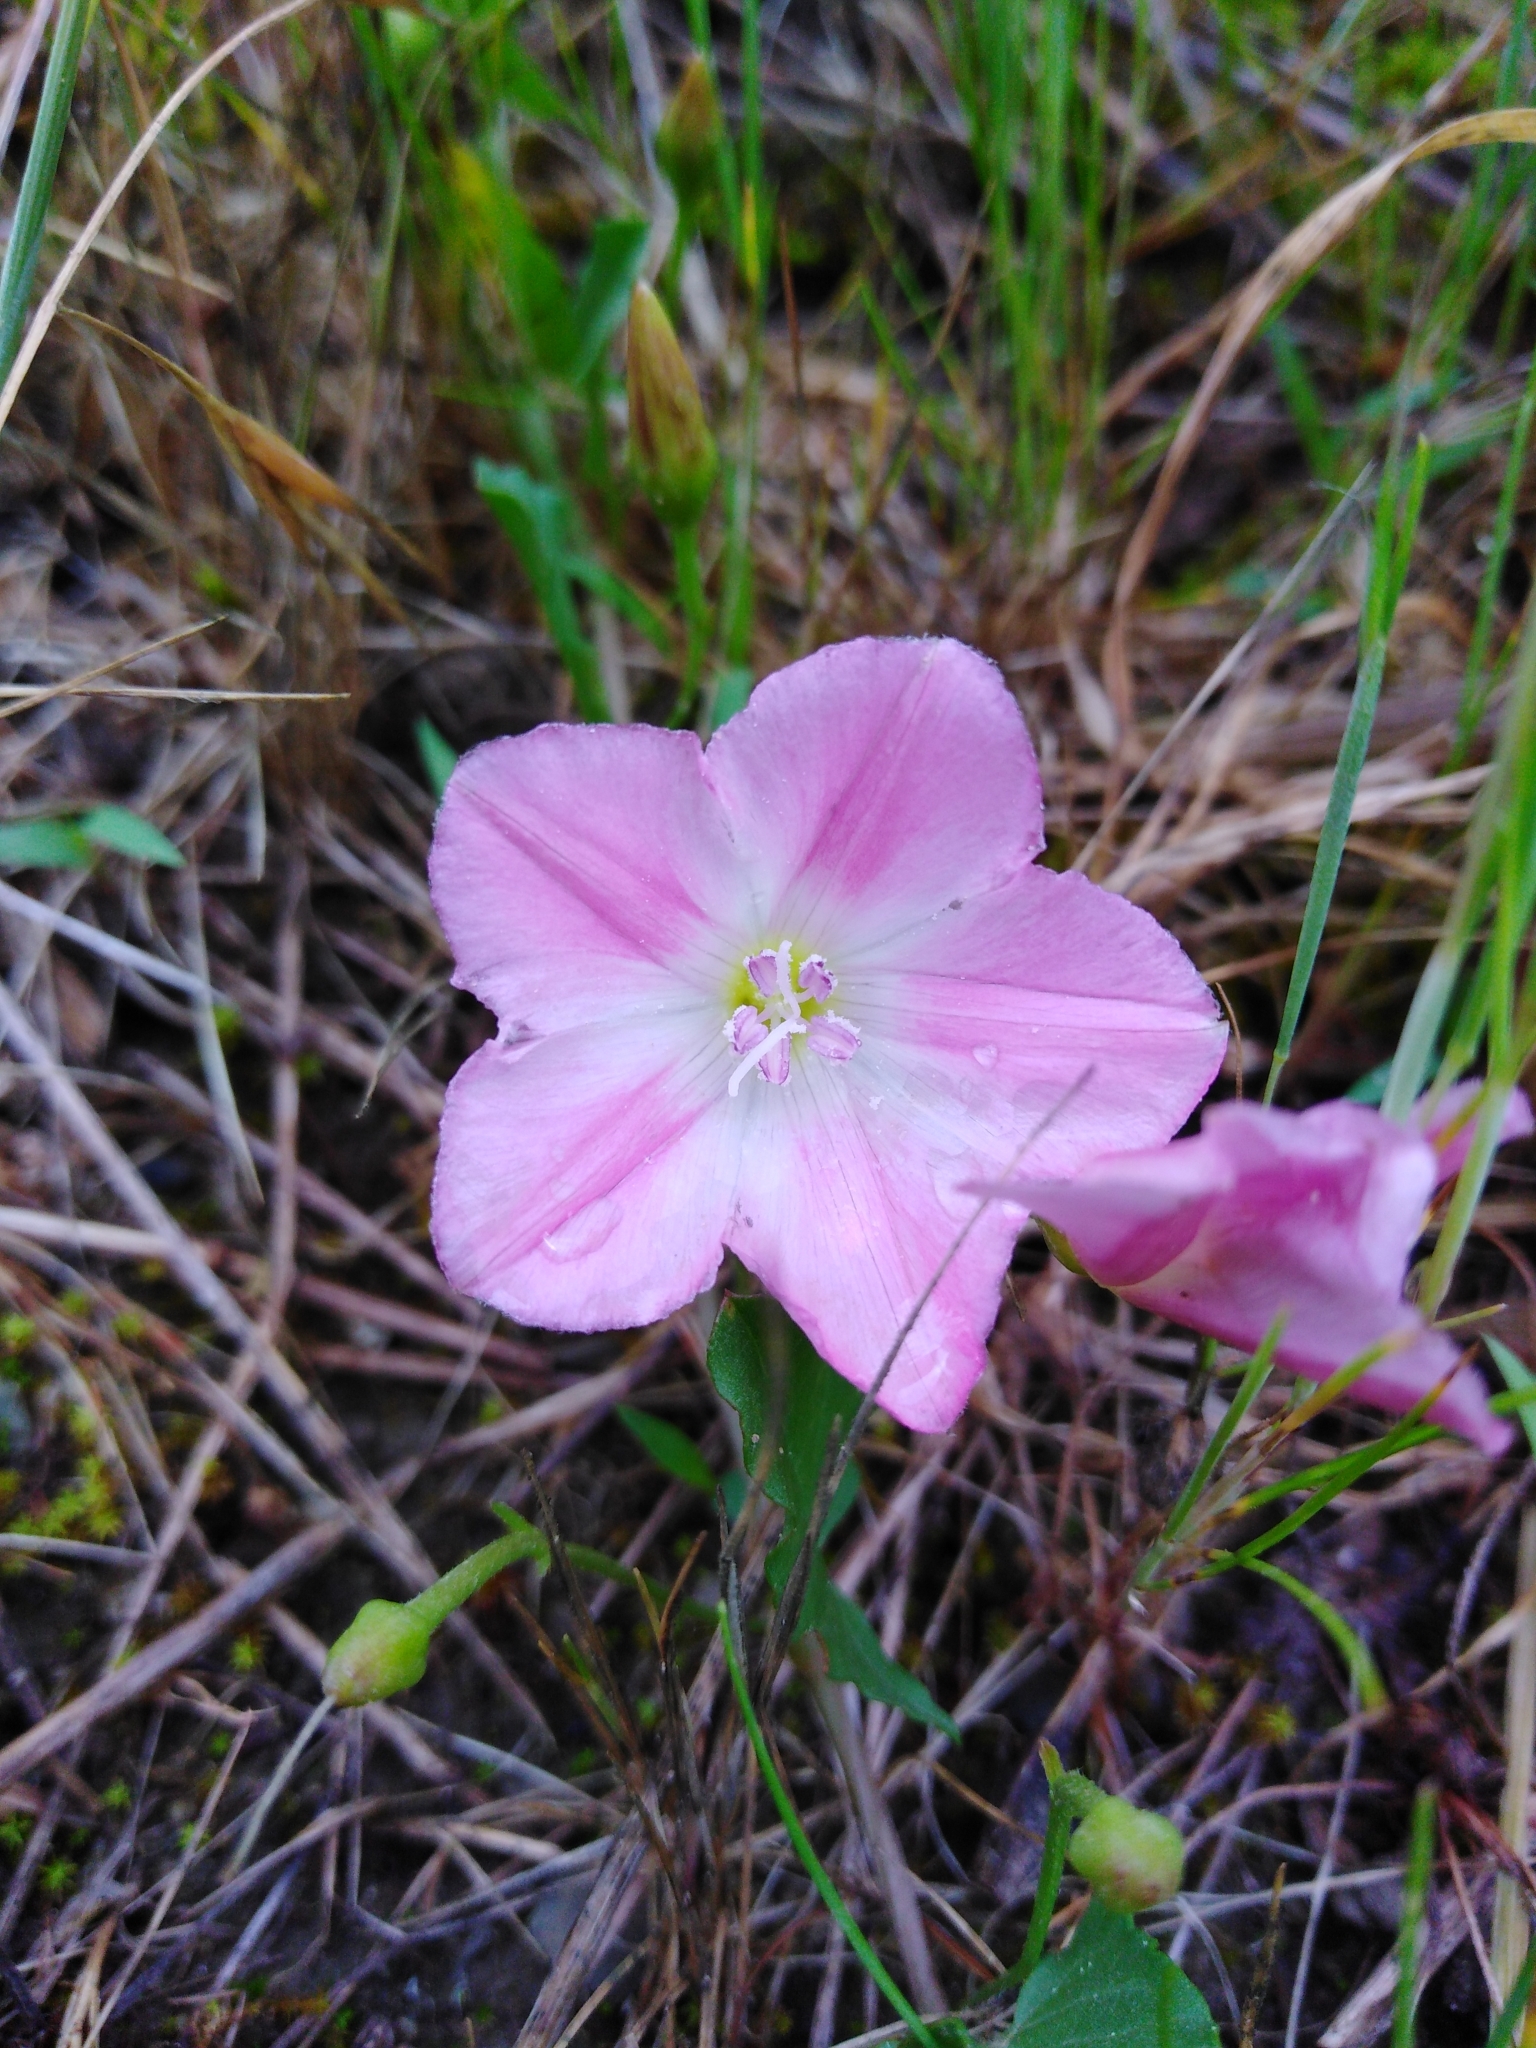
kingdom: Plantae
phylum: Tracheophyta
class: Magnoliopsida
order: Solanales
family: Convolvulaceae
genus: Convolvulus
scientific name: Convolvulus arvensis
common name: Field bindweed
